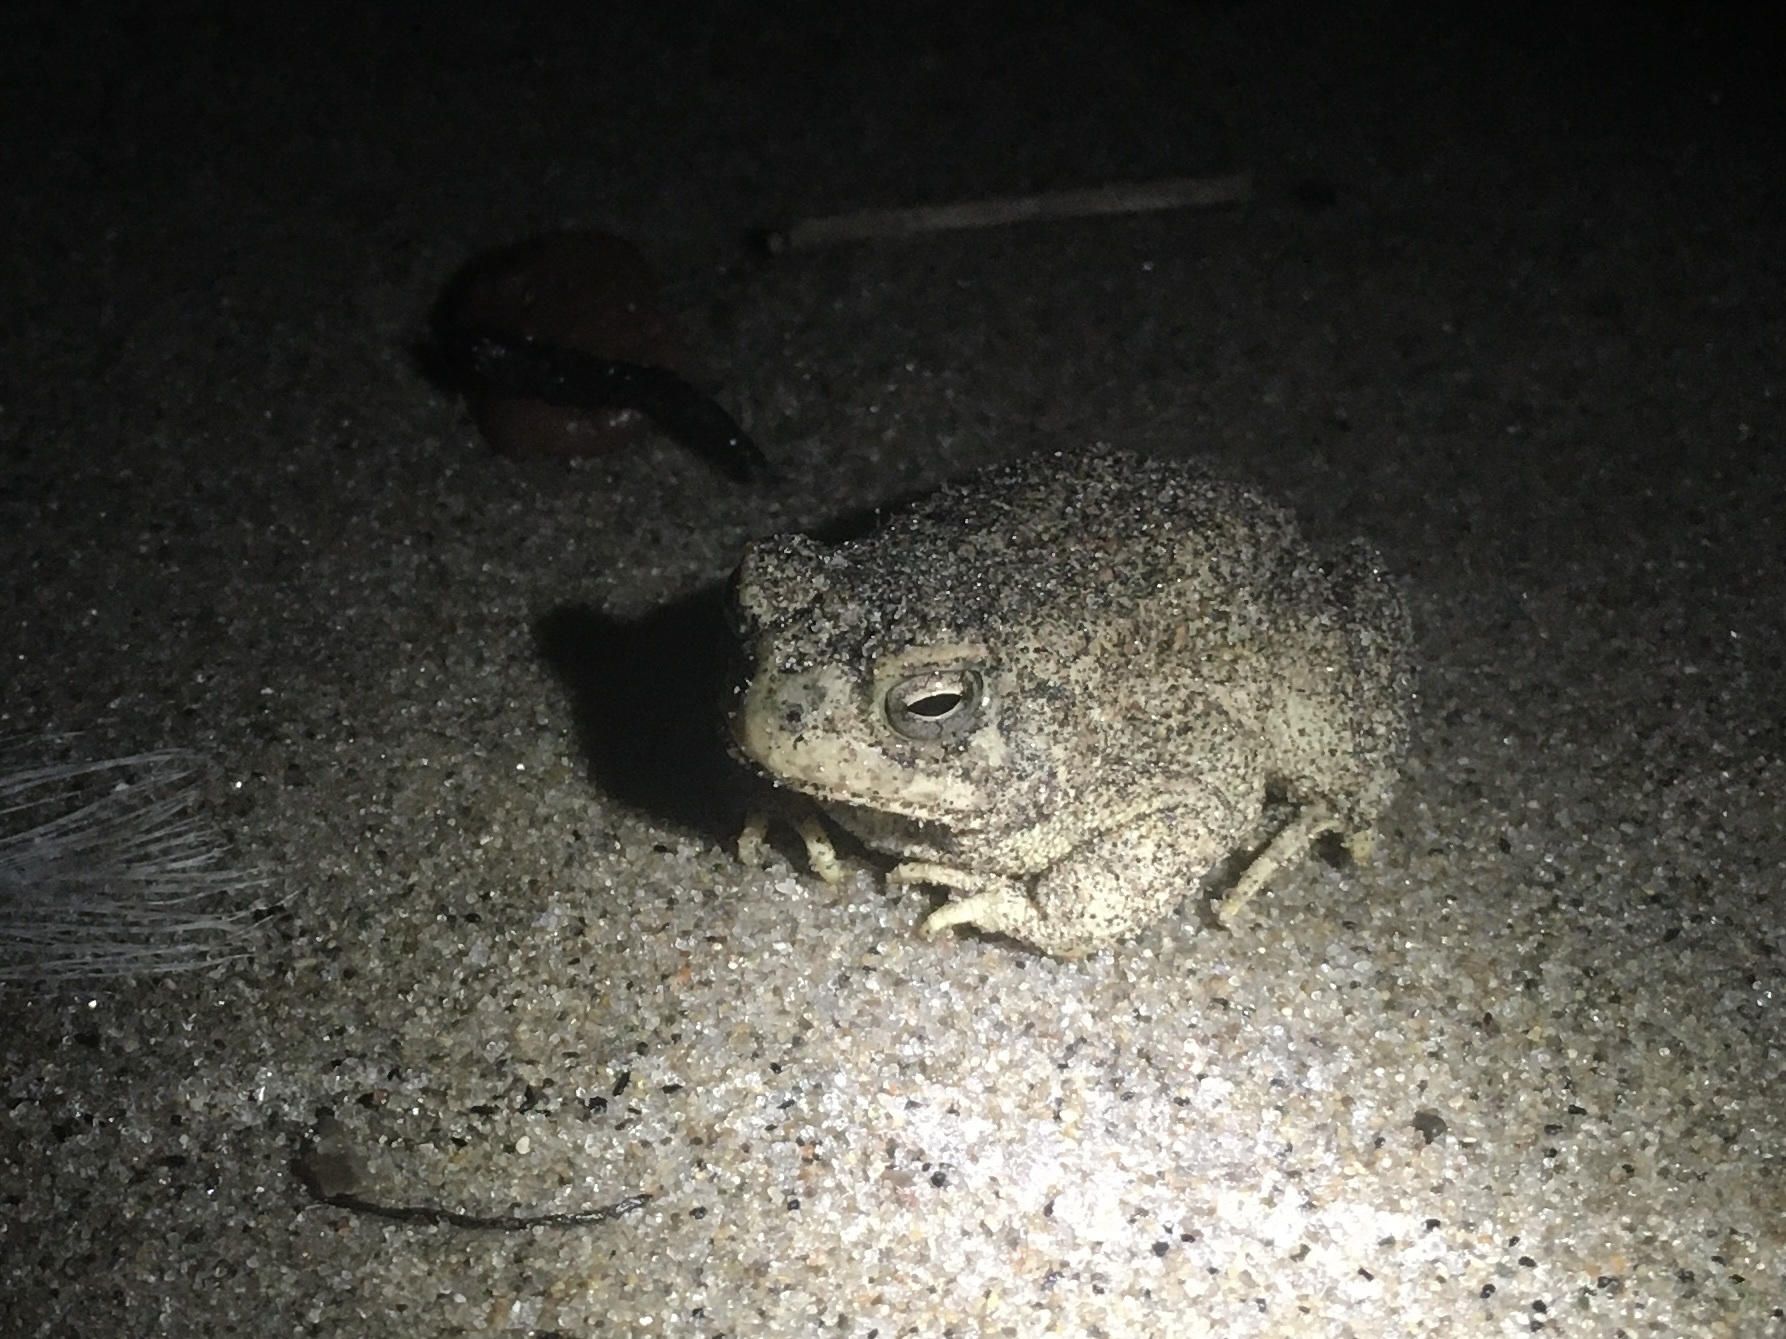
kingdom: Animalia
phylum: Chordata
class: Amphibia
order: Anura
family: Bufonidae
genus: Anaxyrus
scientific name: Anaxyrus fowleri
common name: Fowler's toad
